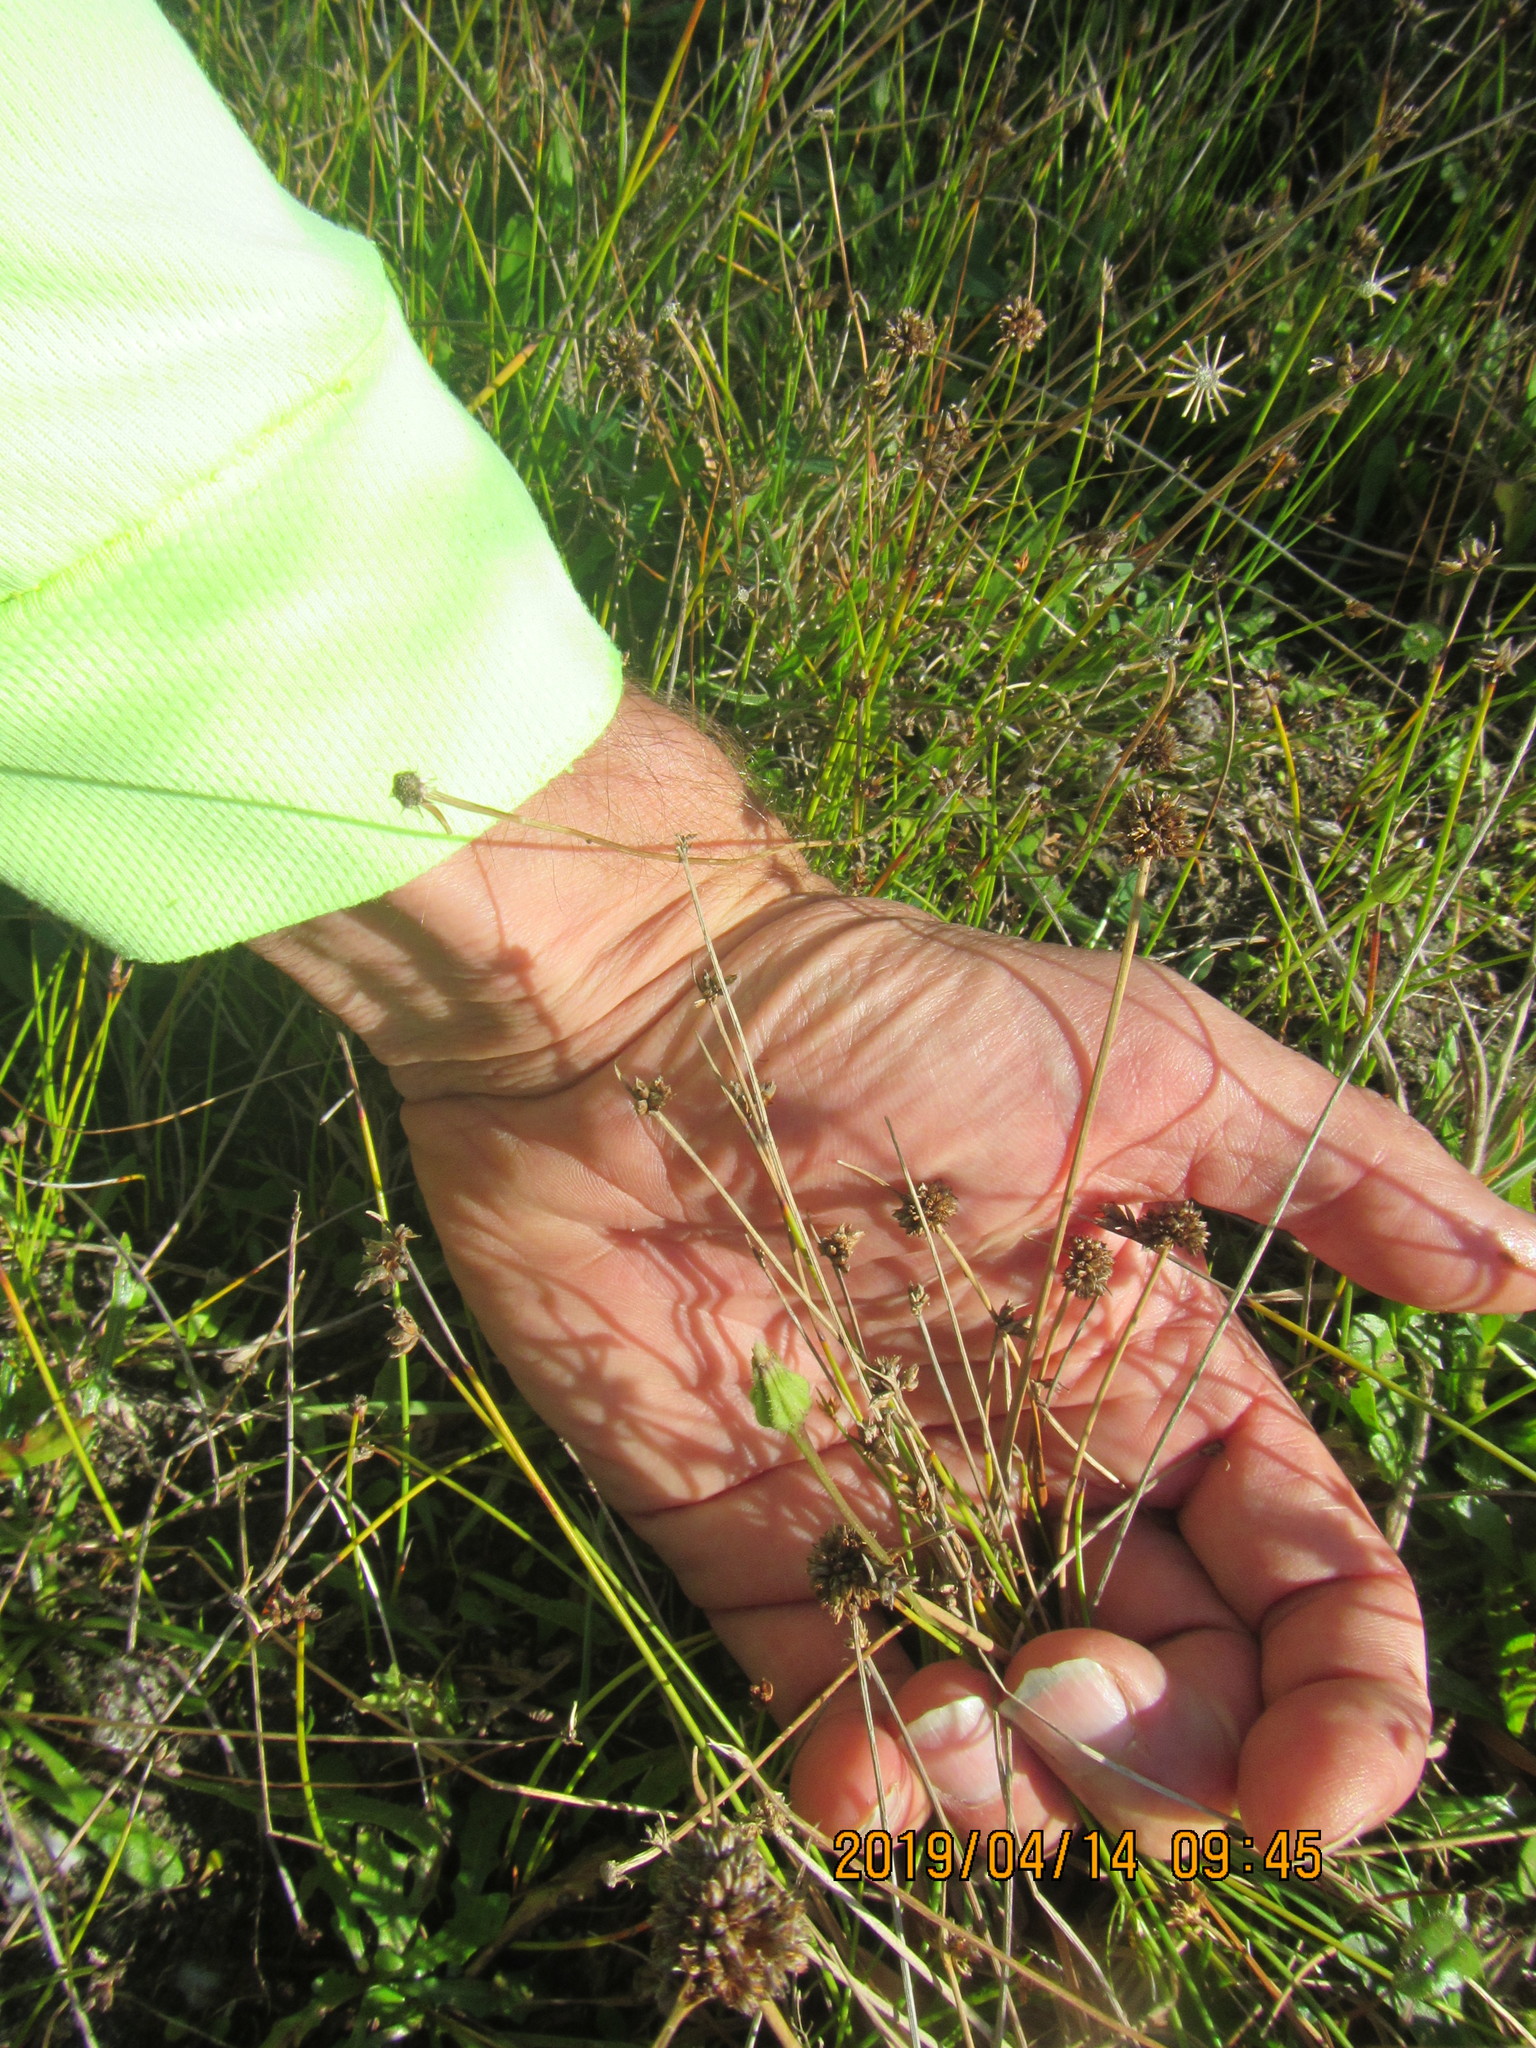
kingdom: Plantae
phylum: Tracheophyta
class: Liliopsida
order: Poales
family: Juncaceae
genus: Juncus
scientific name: Juncus caespiticius
